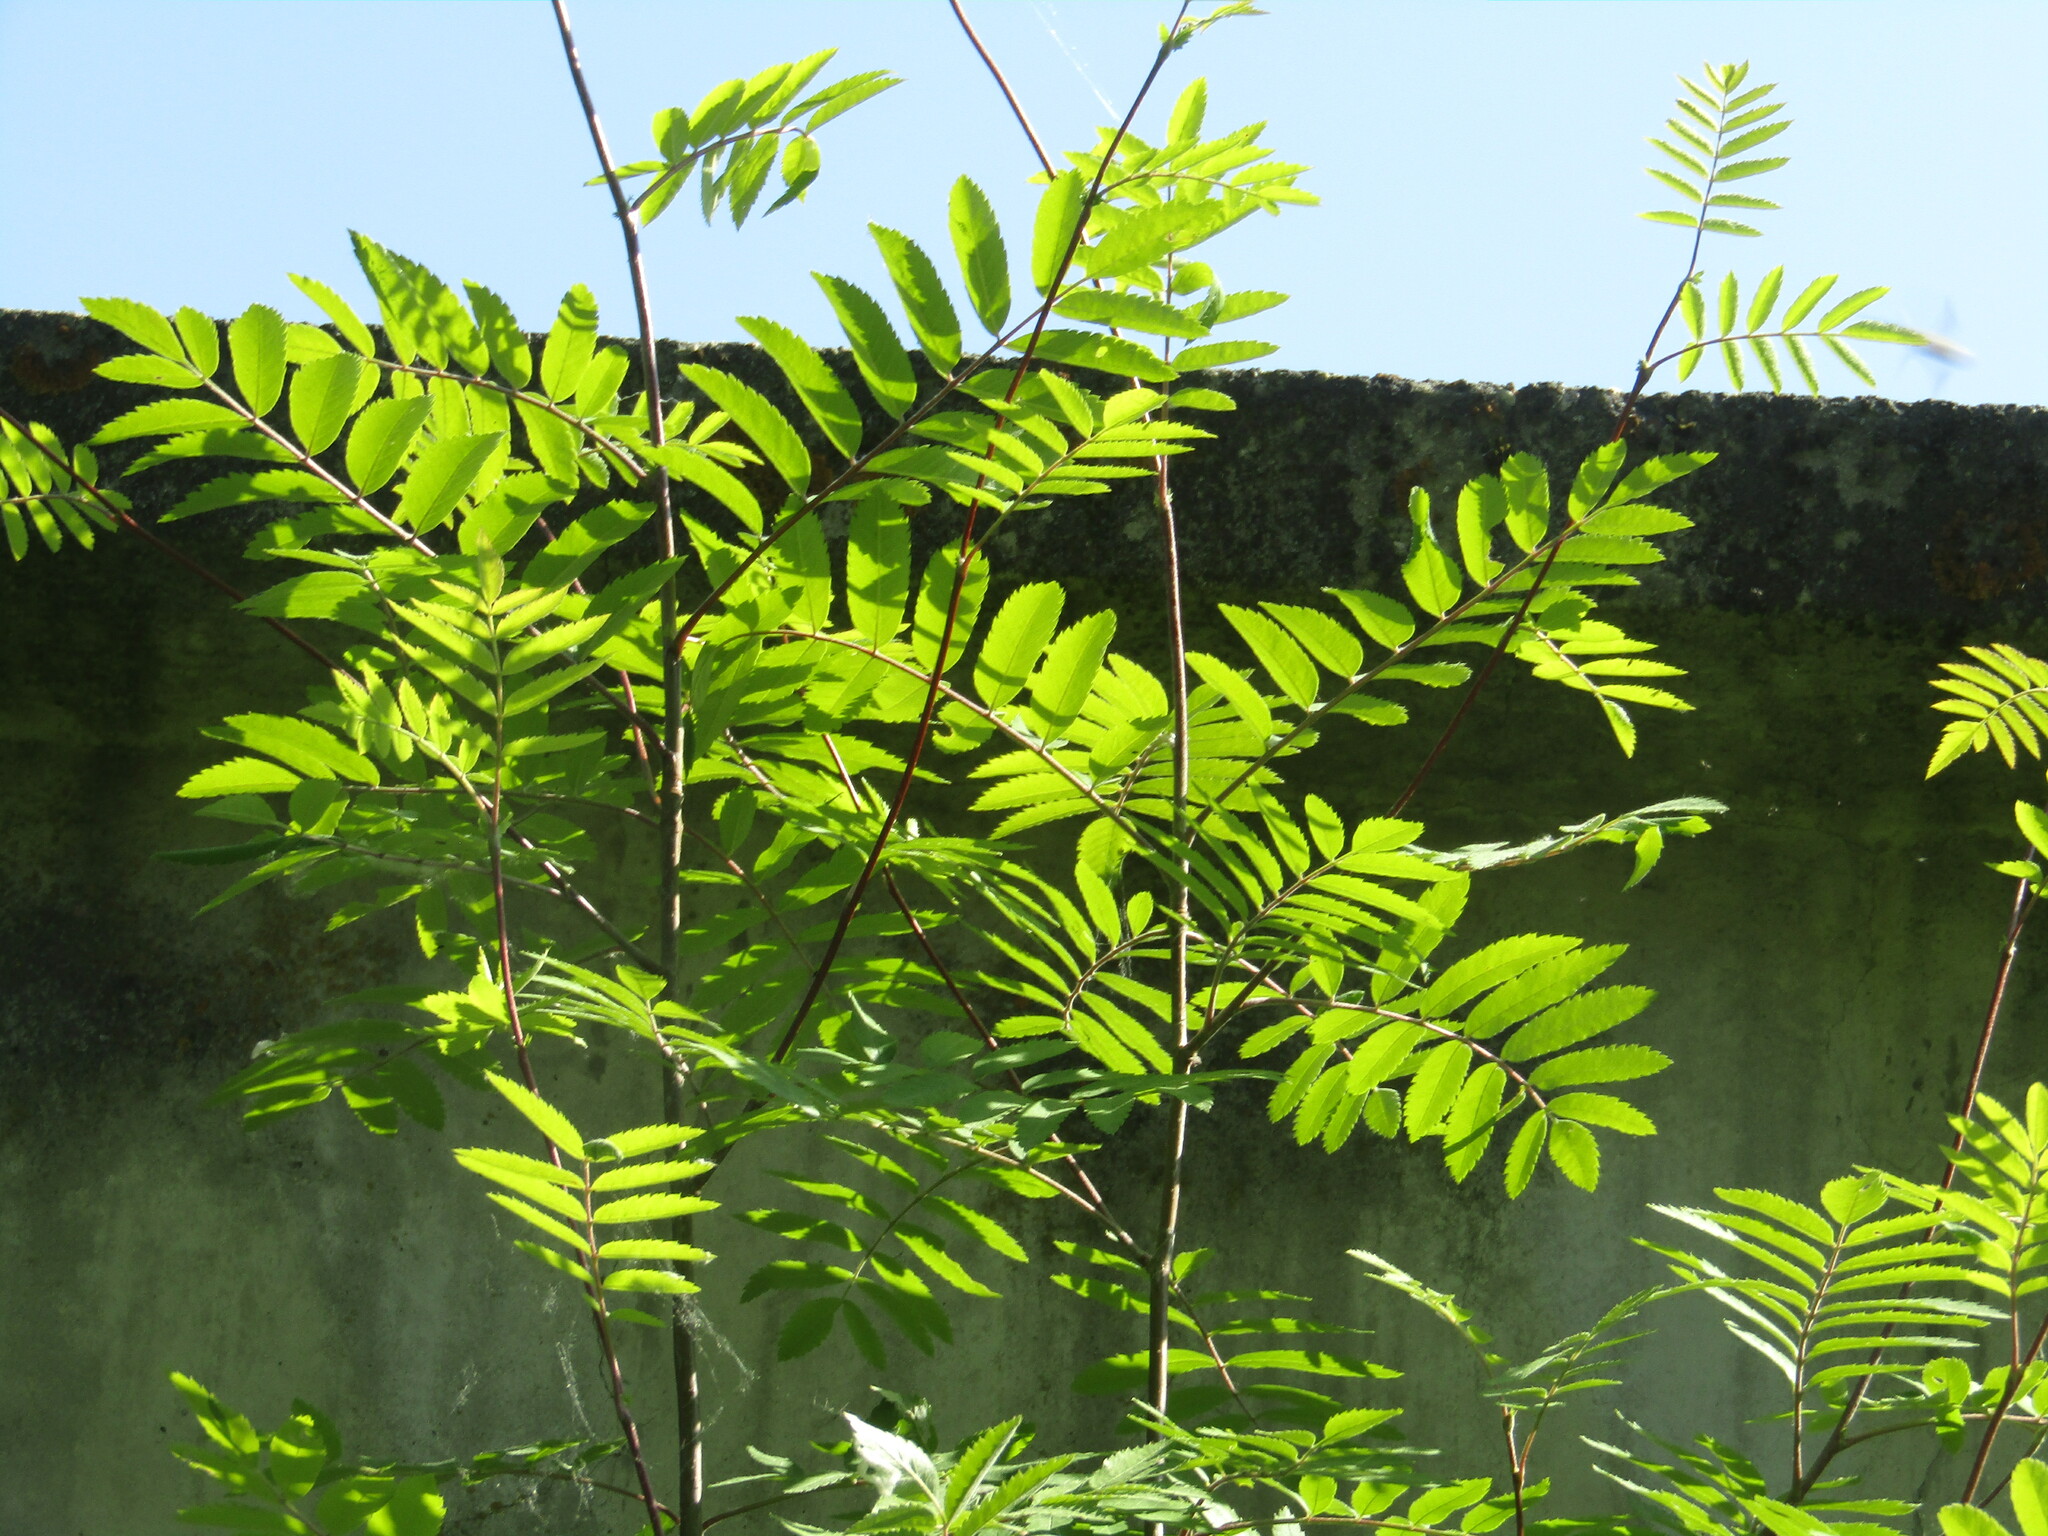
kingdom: Plantae
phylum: Tracheophyta
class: Magnoliopsida
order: Rosales
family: Rosaceae
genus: Sorbus
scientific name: Sorbus aucuparia
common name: Rowan
